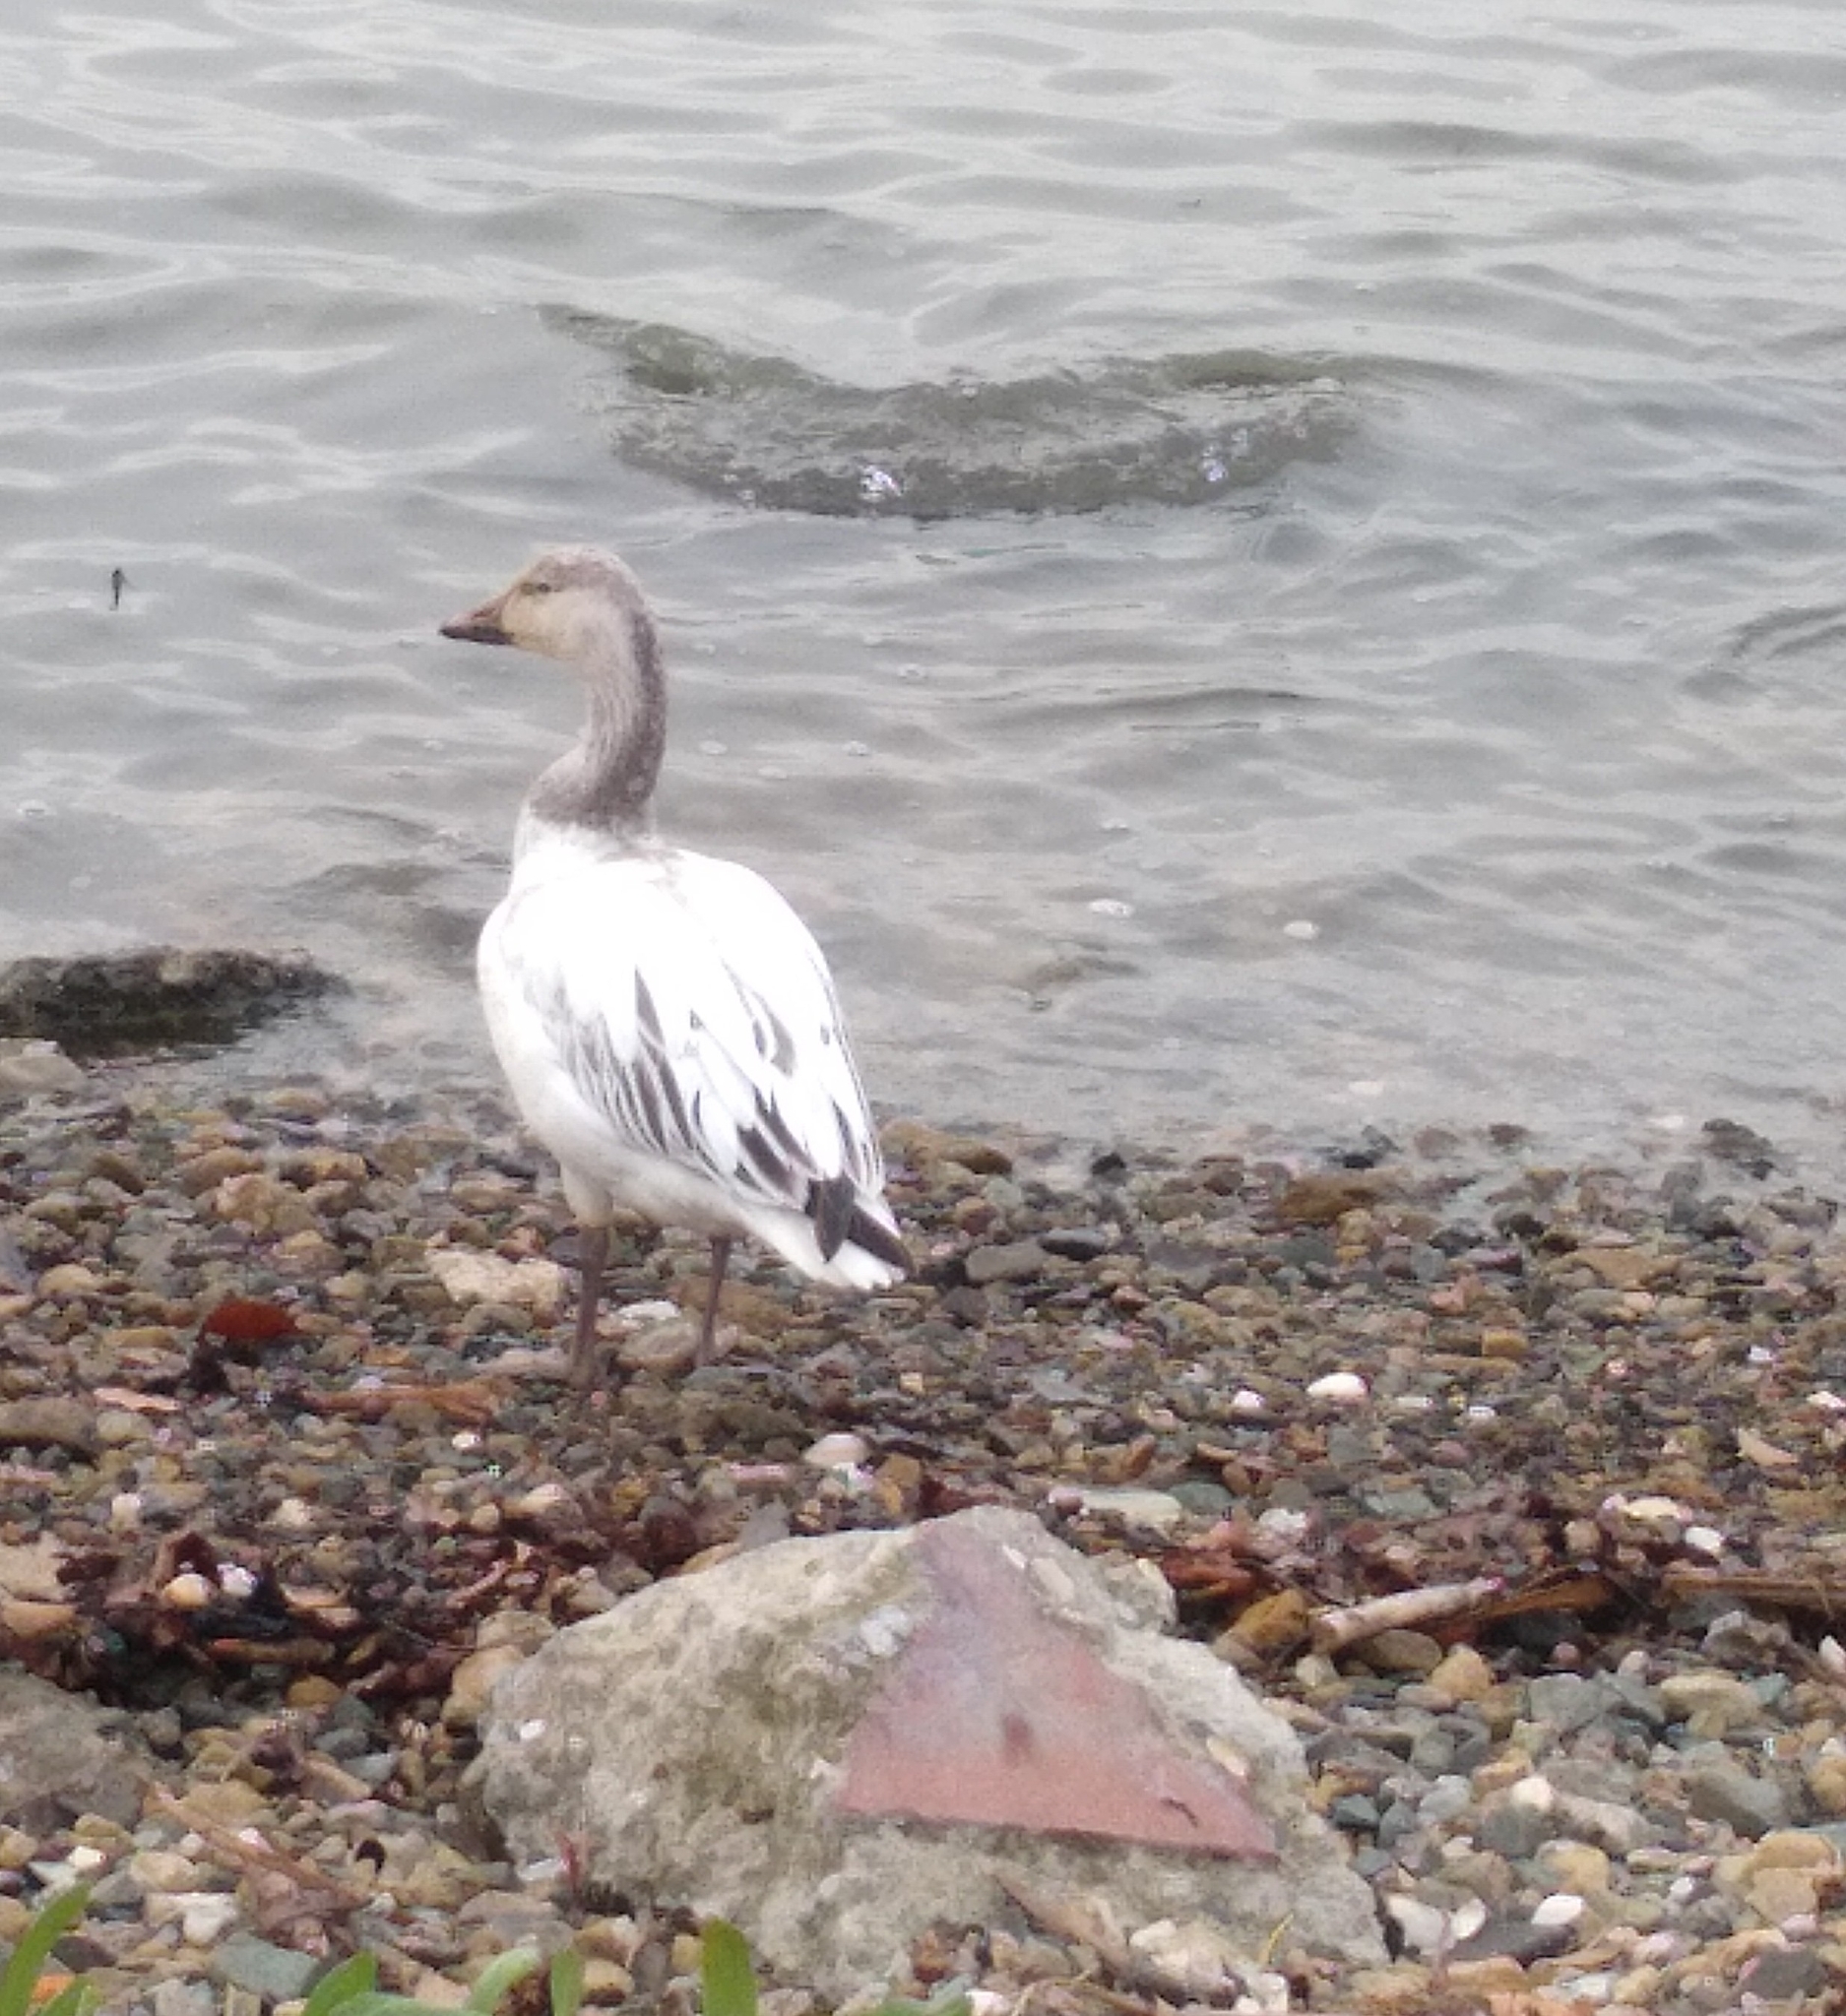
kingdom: Animalia
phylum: Chordata
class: Aves
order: Anseriformes
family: Anatidae
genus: Anser
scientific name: Anser caerulescens
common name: Snow goose
